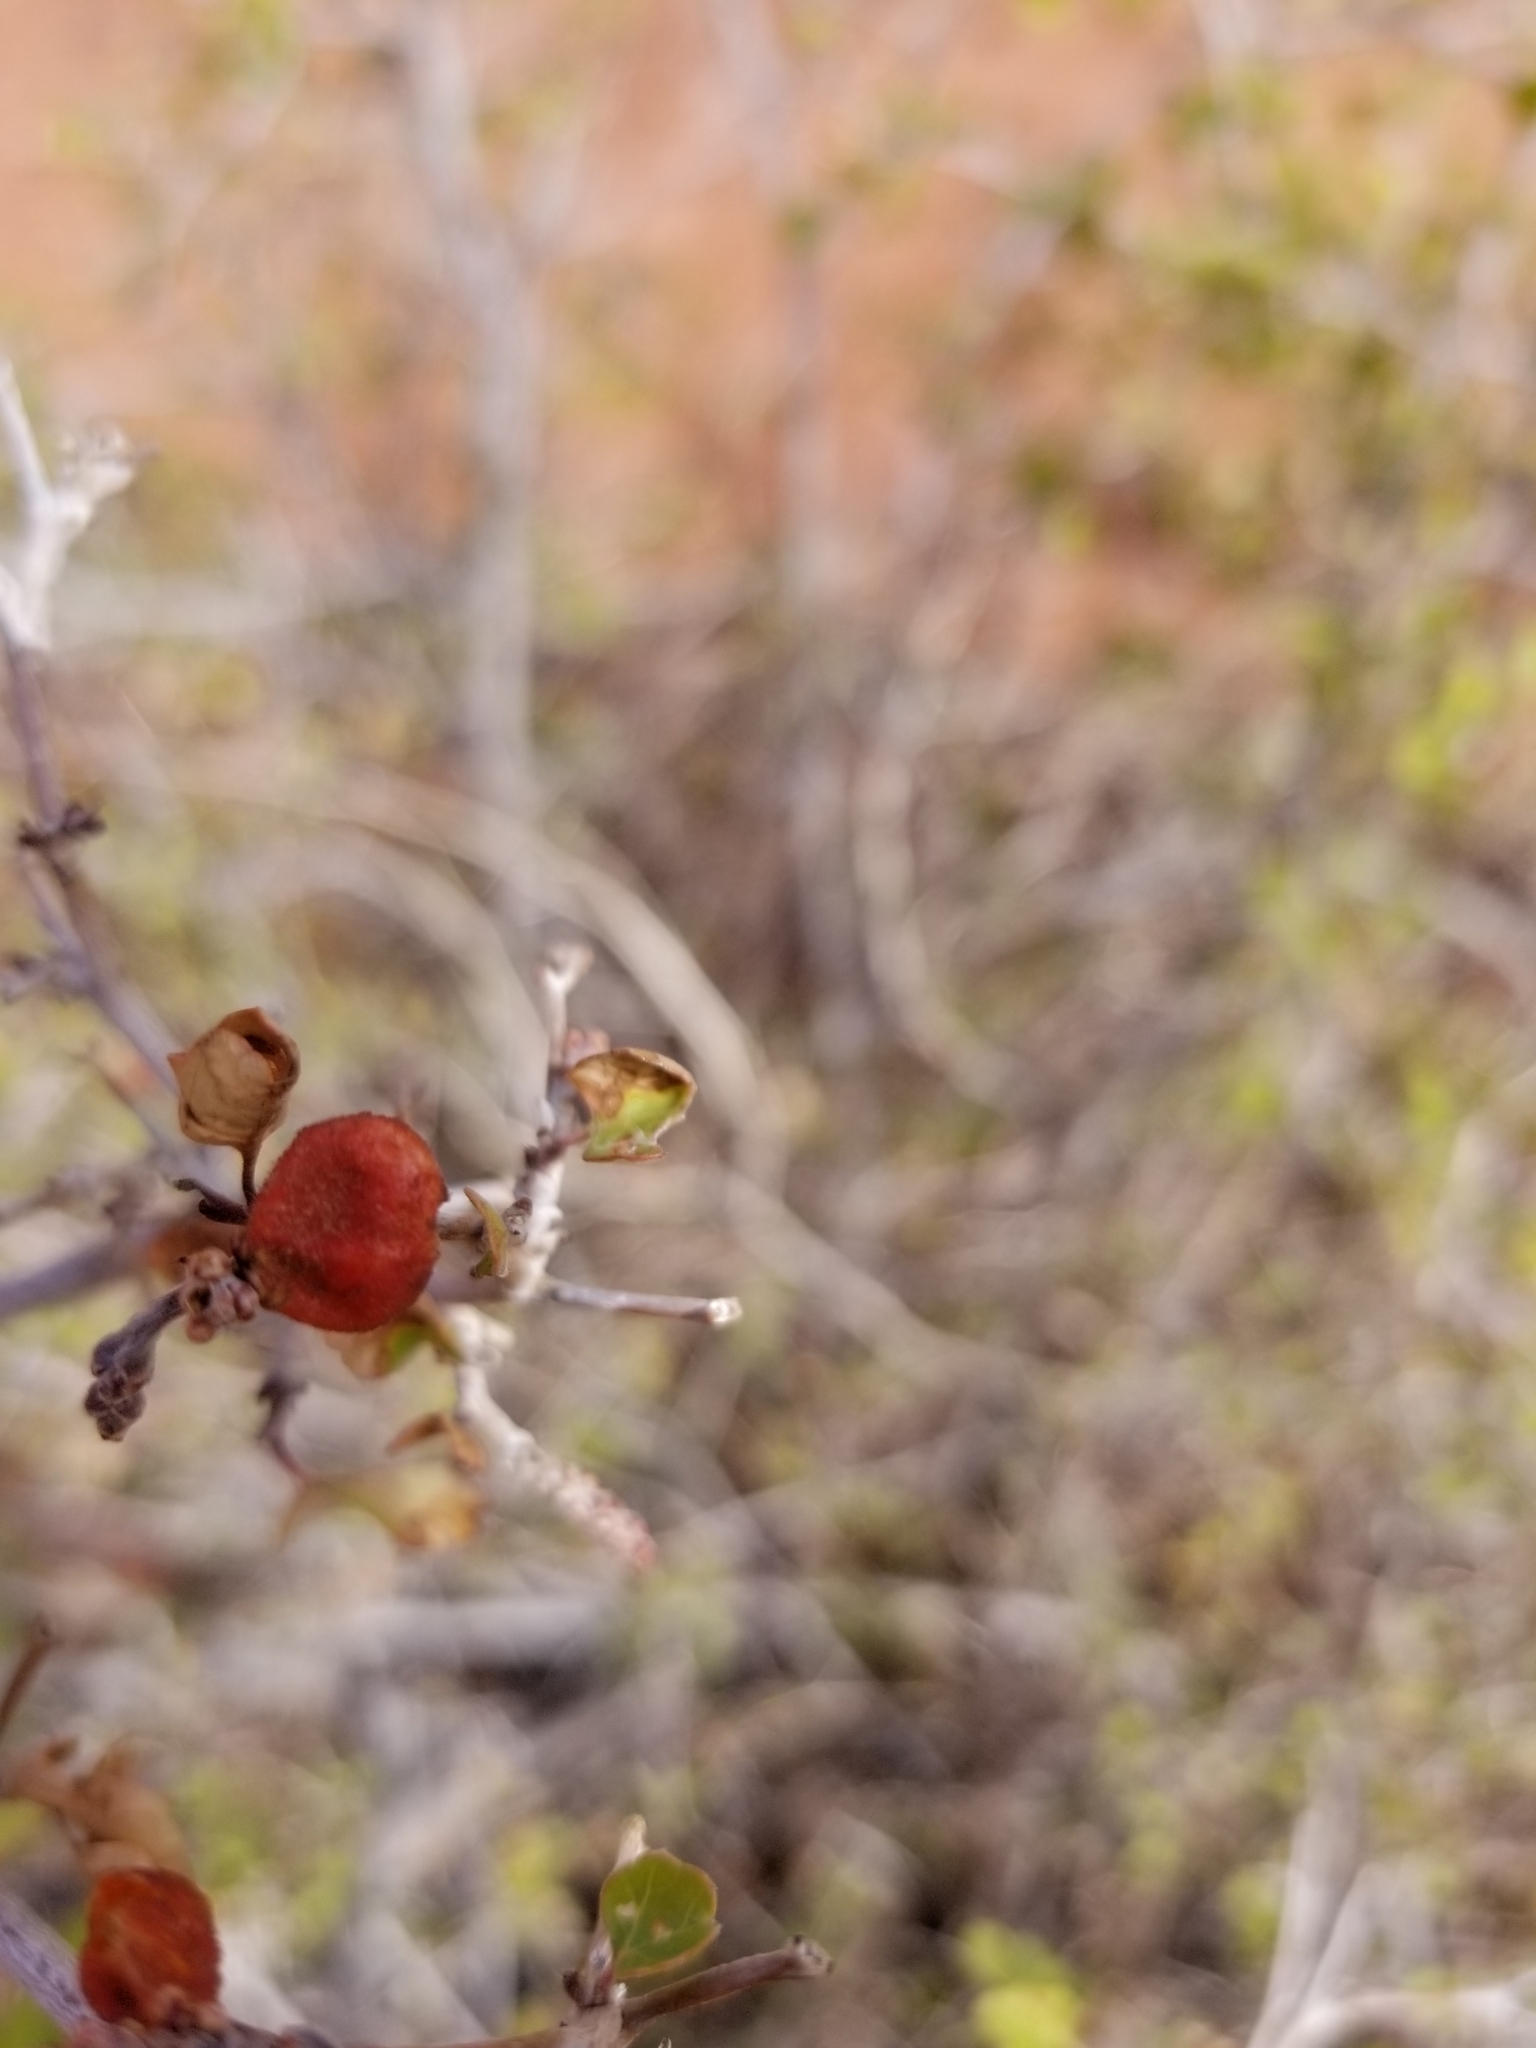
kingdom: Plantae
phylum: Tracheophyta
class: Magnoliopsida
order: Sapindales
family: Anacardiaceae
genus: Rhus
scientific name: Rhus trilobata
